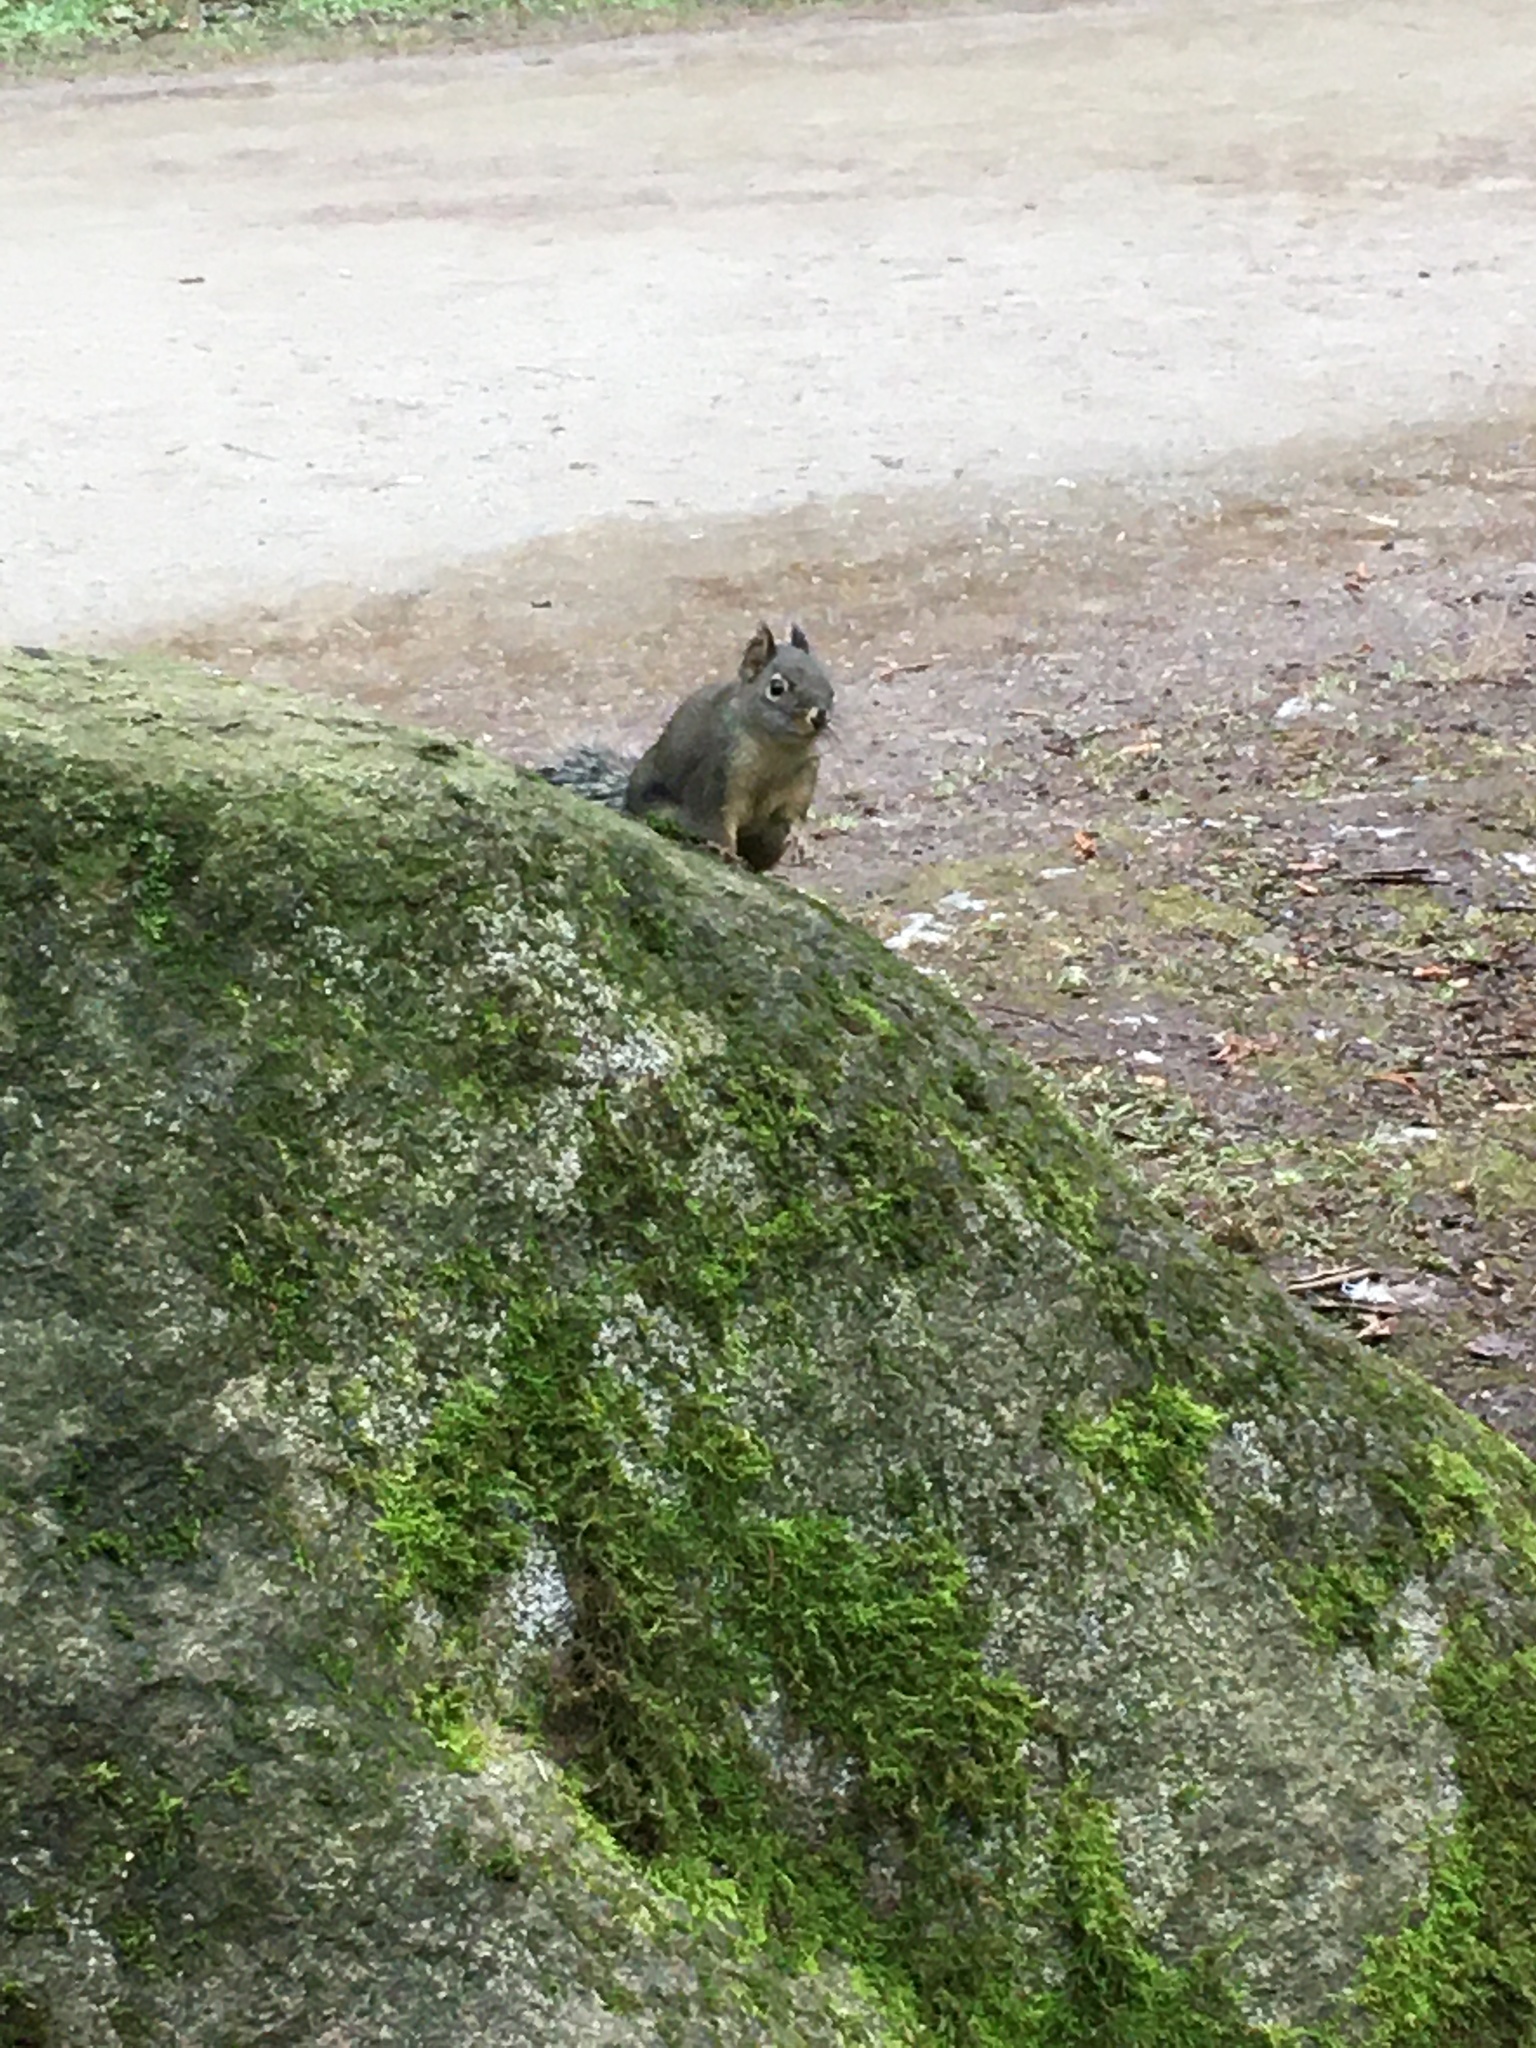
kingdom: Animalia
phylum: Chordata
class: Mammalia
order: Rodentia
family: Sciuridae
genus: Tamiasciurus
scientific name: Tamiasciurus douglasii
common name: Douglas's squirrel
